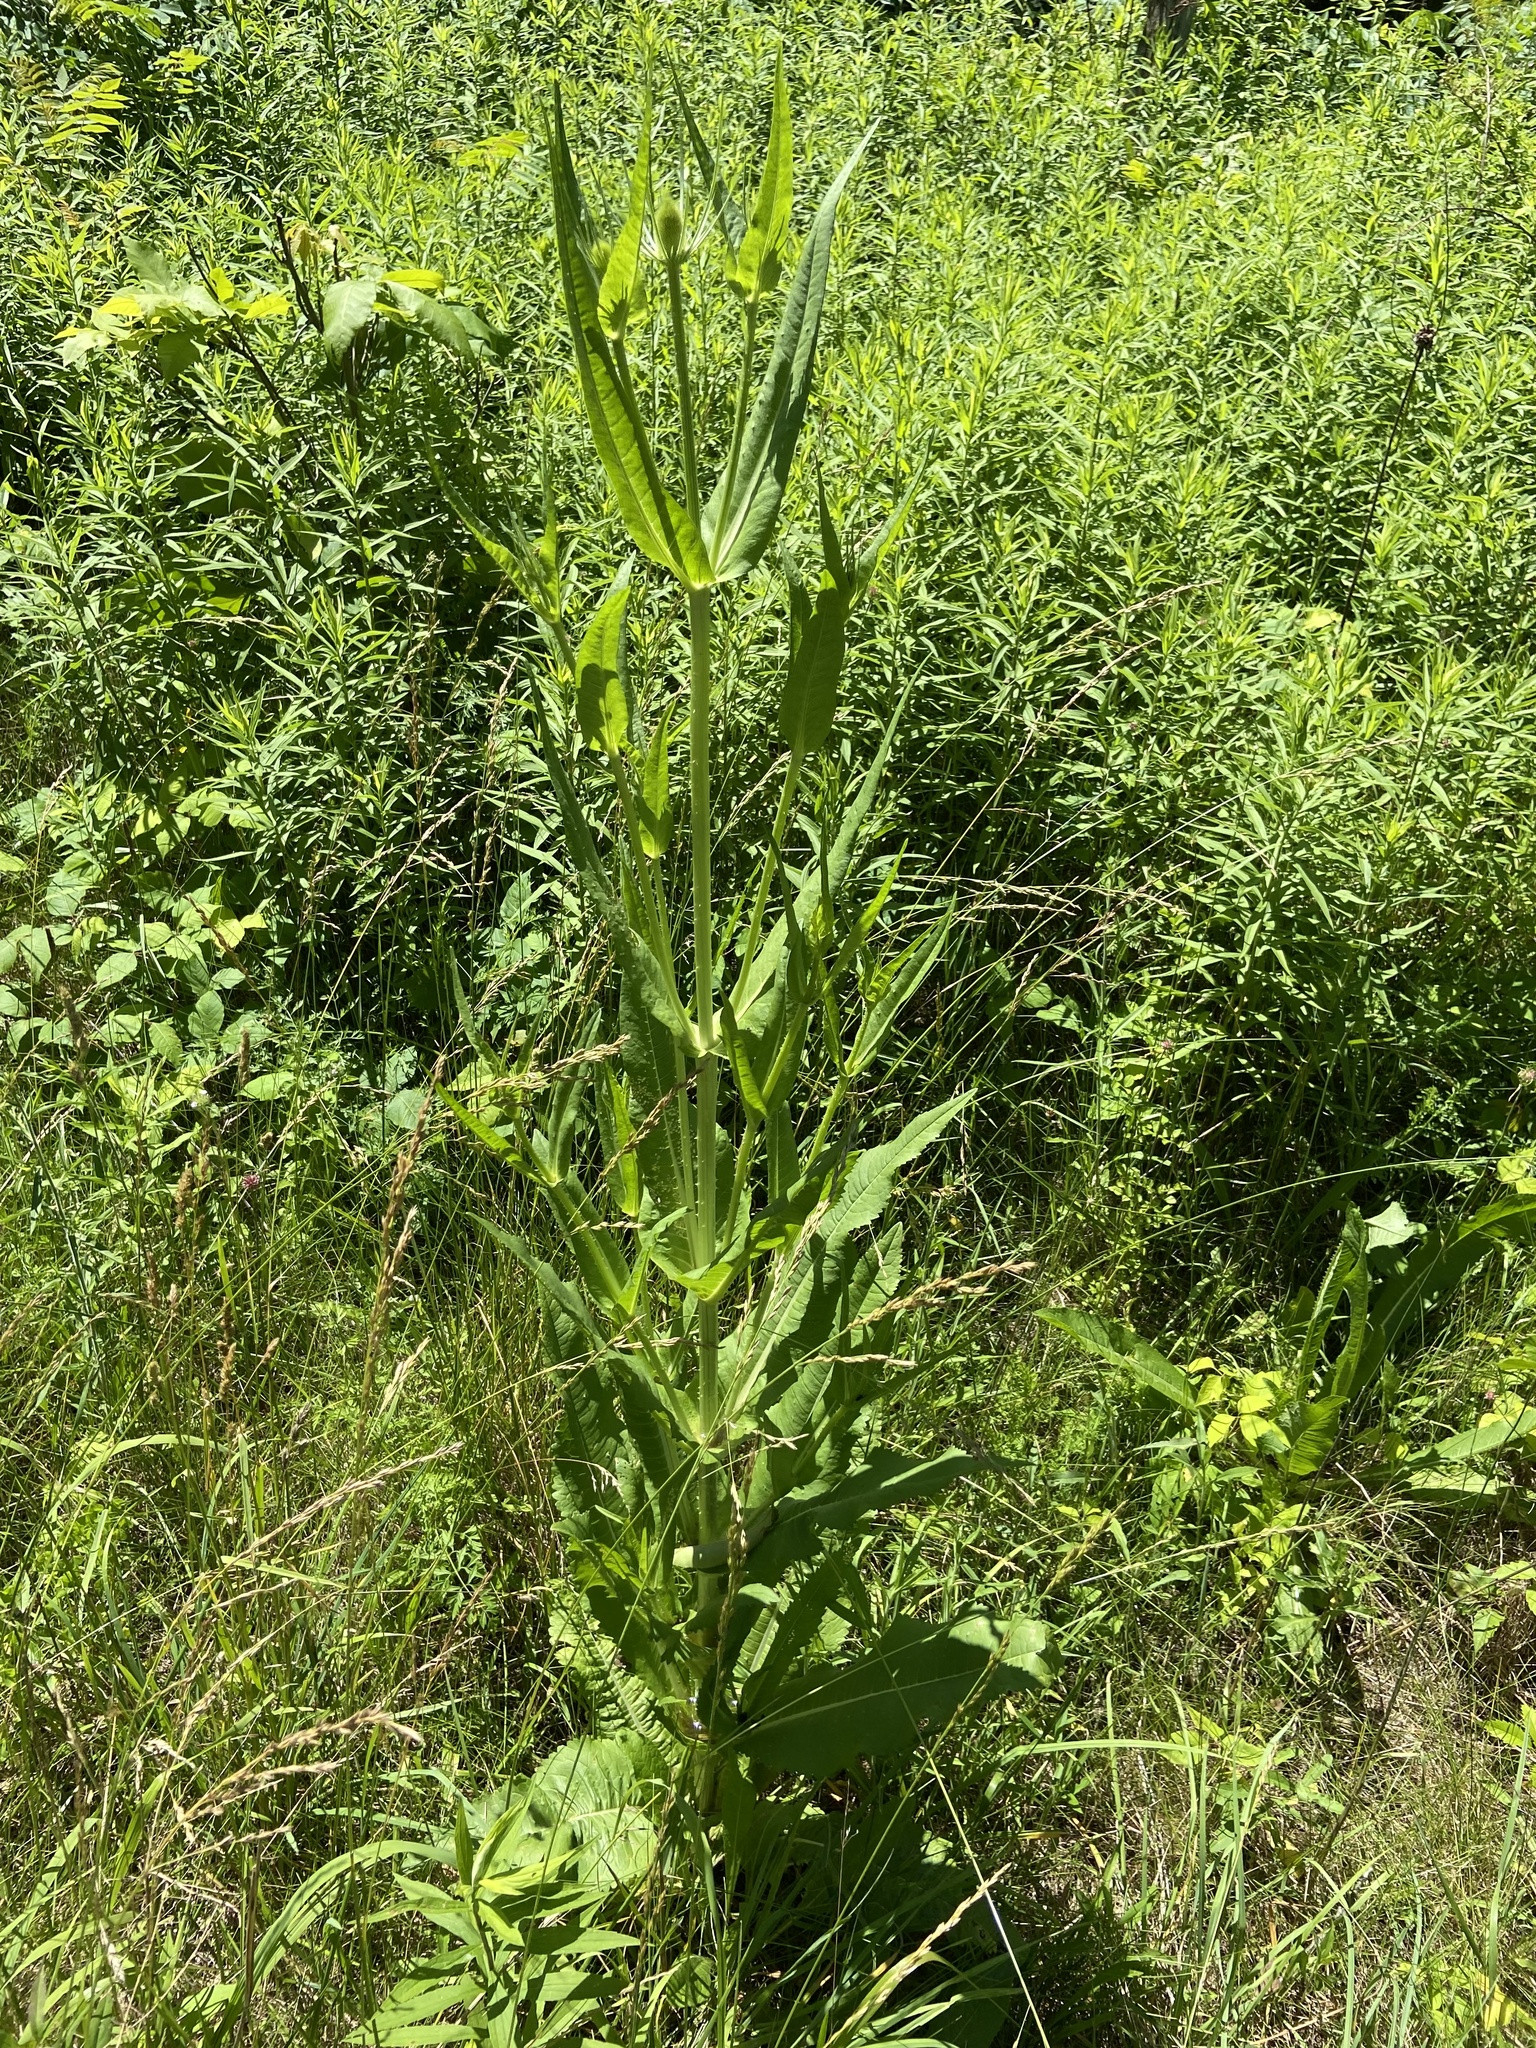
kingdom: Plantae
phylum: Tracheophyta
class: Magnoliopsida
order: Dipsacales
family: Caprifoliaceae
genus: Dipsacus
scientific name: Dipsacus fullonum
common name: Teasel
